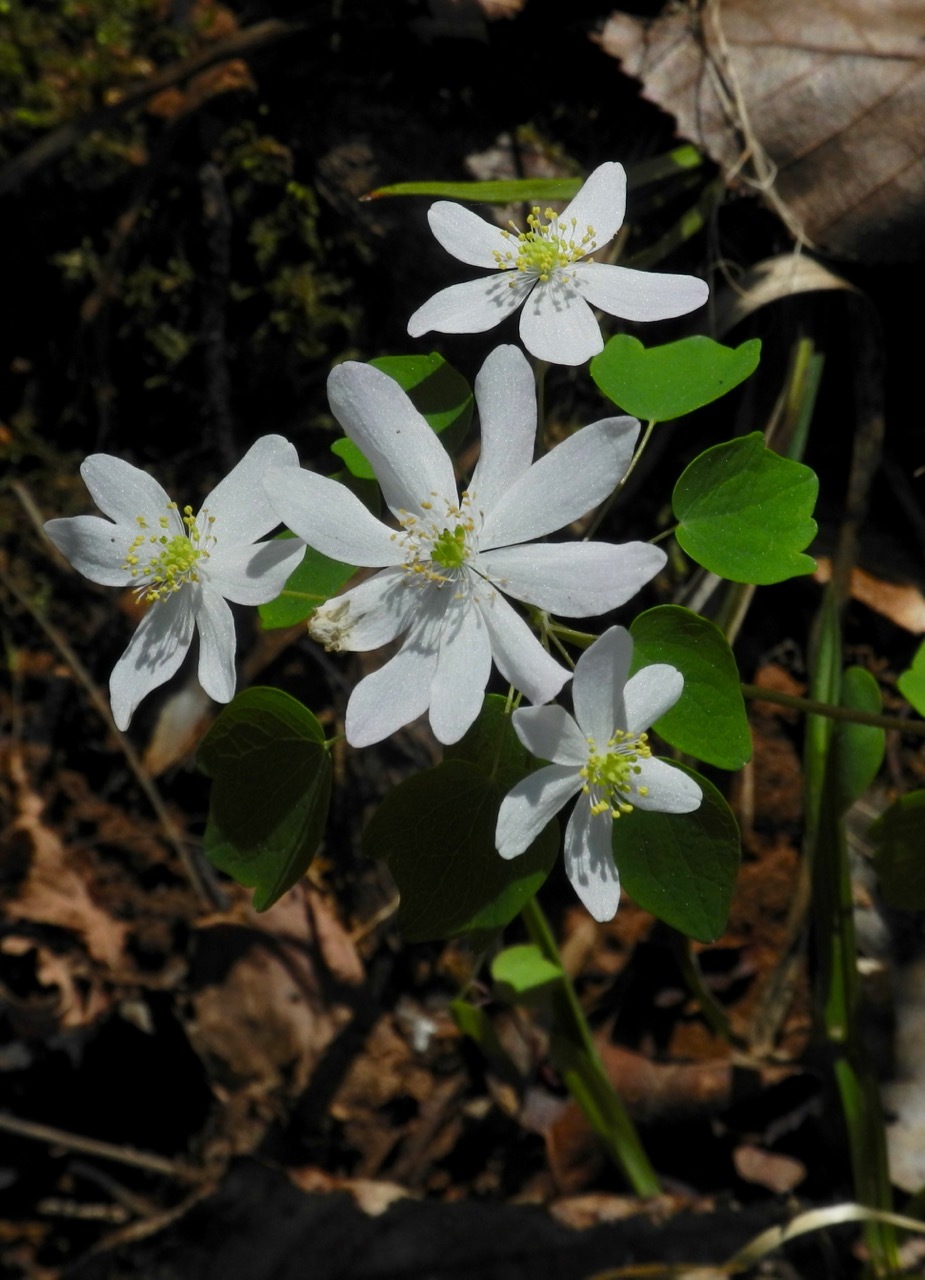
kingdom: Plantae
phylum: Tracheophyta
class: Magnoliopsida
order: Ranunculales
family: Ranunculaceae
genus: Thalictrum
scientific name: Thalictrum thalictroides
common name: Rue-anemone
